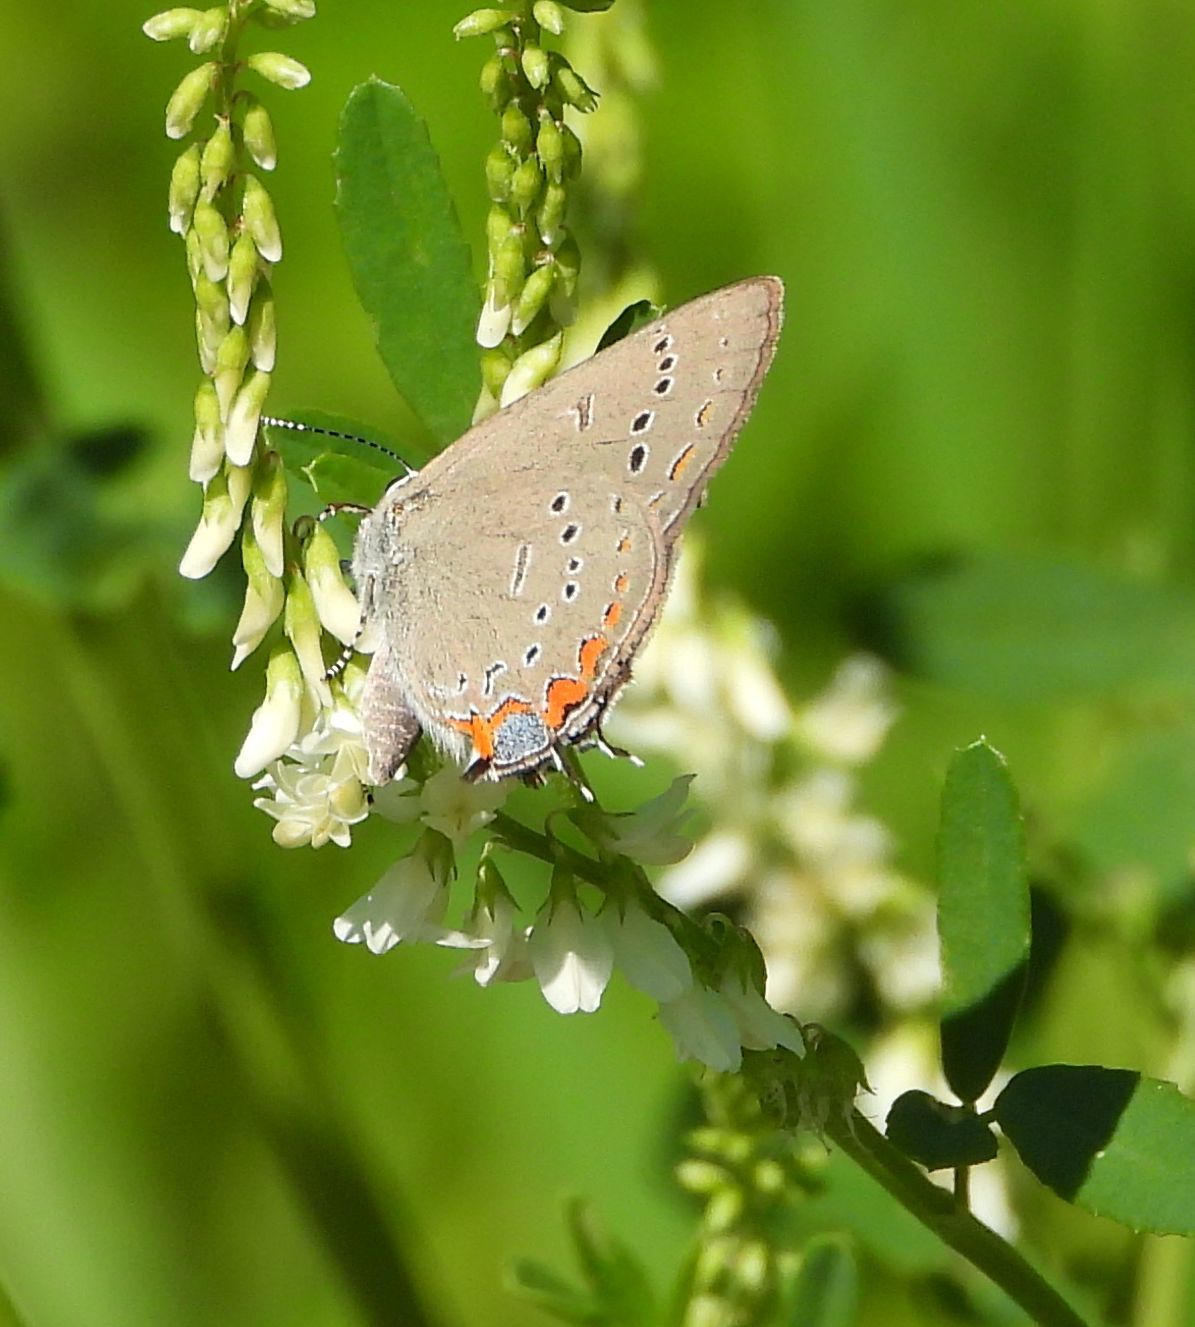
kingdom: Animalia
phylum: Arthropoda
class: Insecta
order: Lepidoptera
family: Lycaenidae
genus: Strymon
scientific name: Strymon acadica
